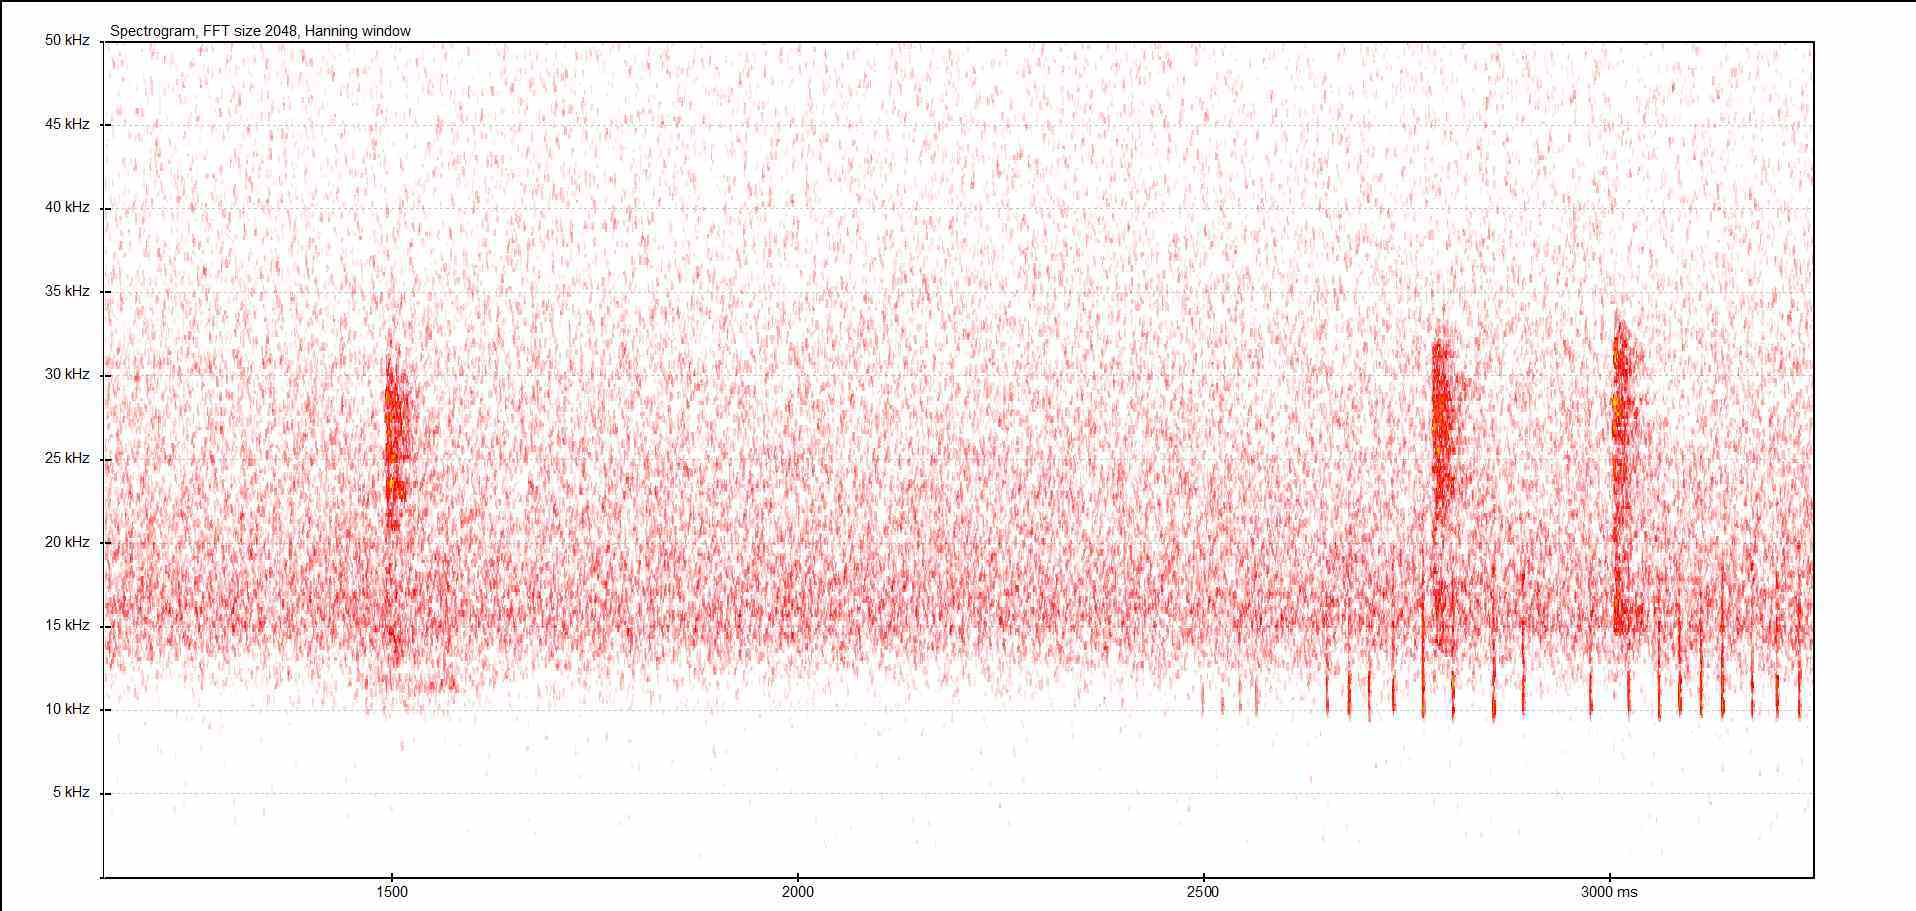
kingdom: Animalia
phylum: Arthropoda
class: Insecta
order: Orthoptera
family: Tettigoniidae
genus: Barbitistes
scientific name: Barbitistes serricauda
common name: Saw-tailed bush-cricket
